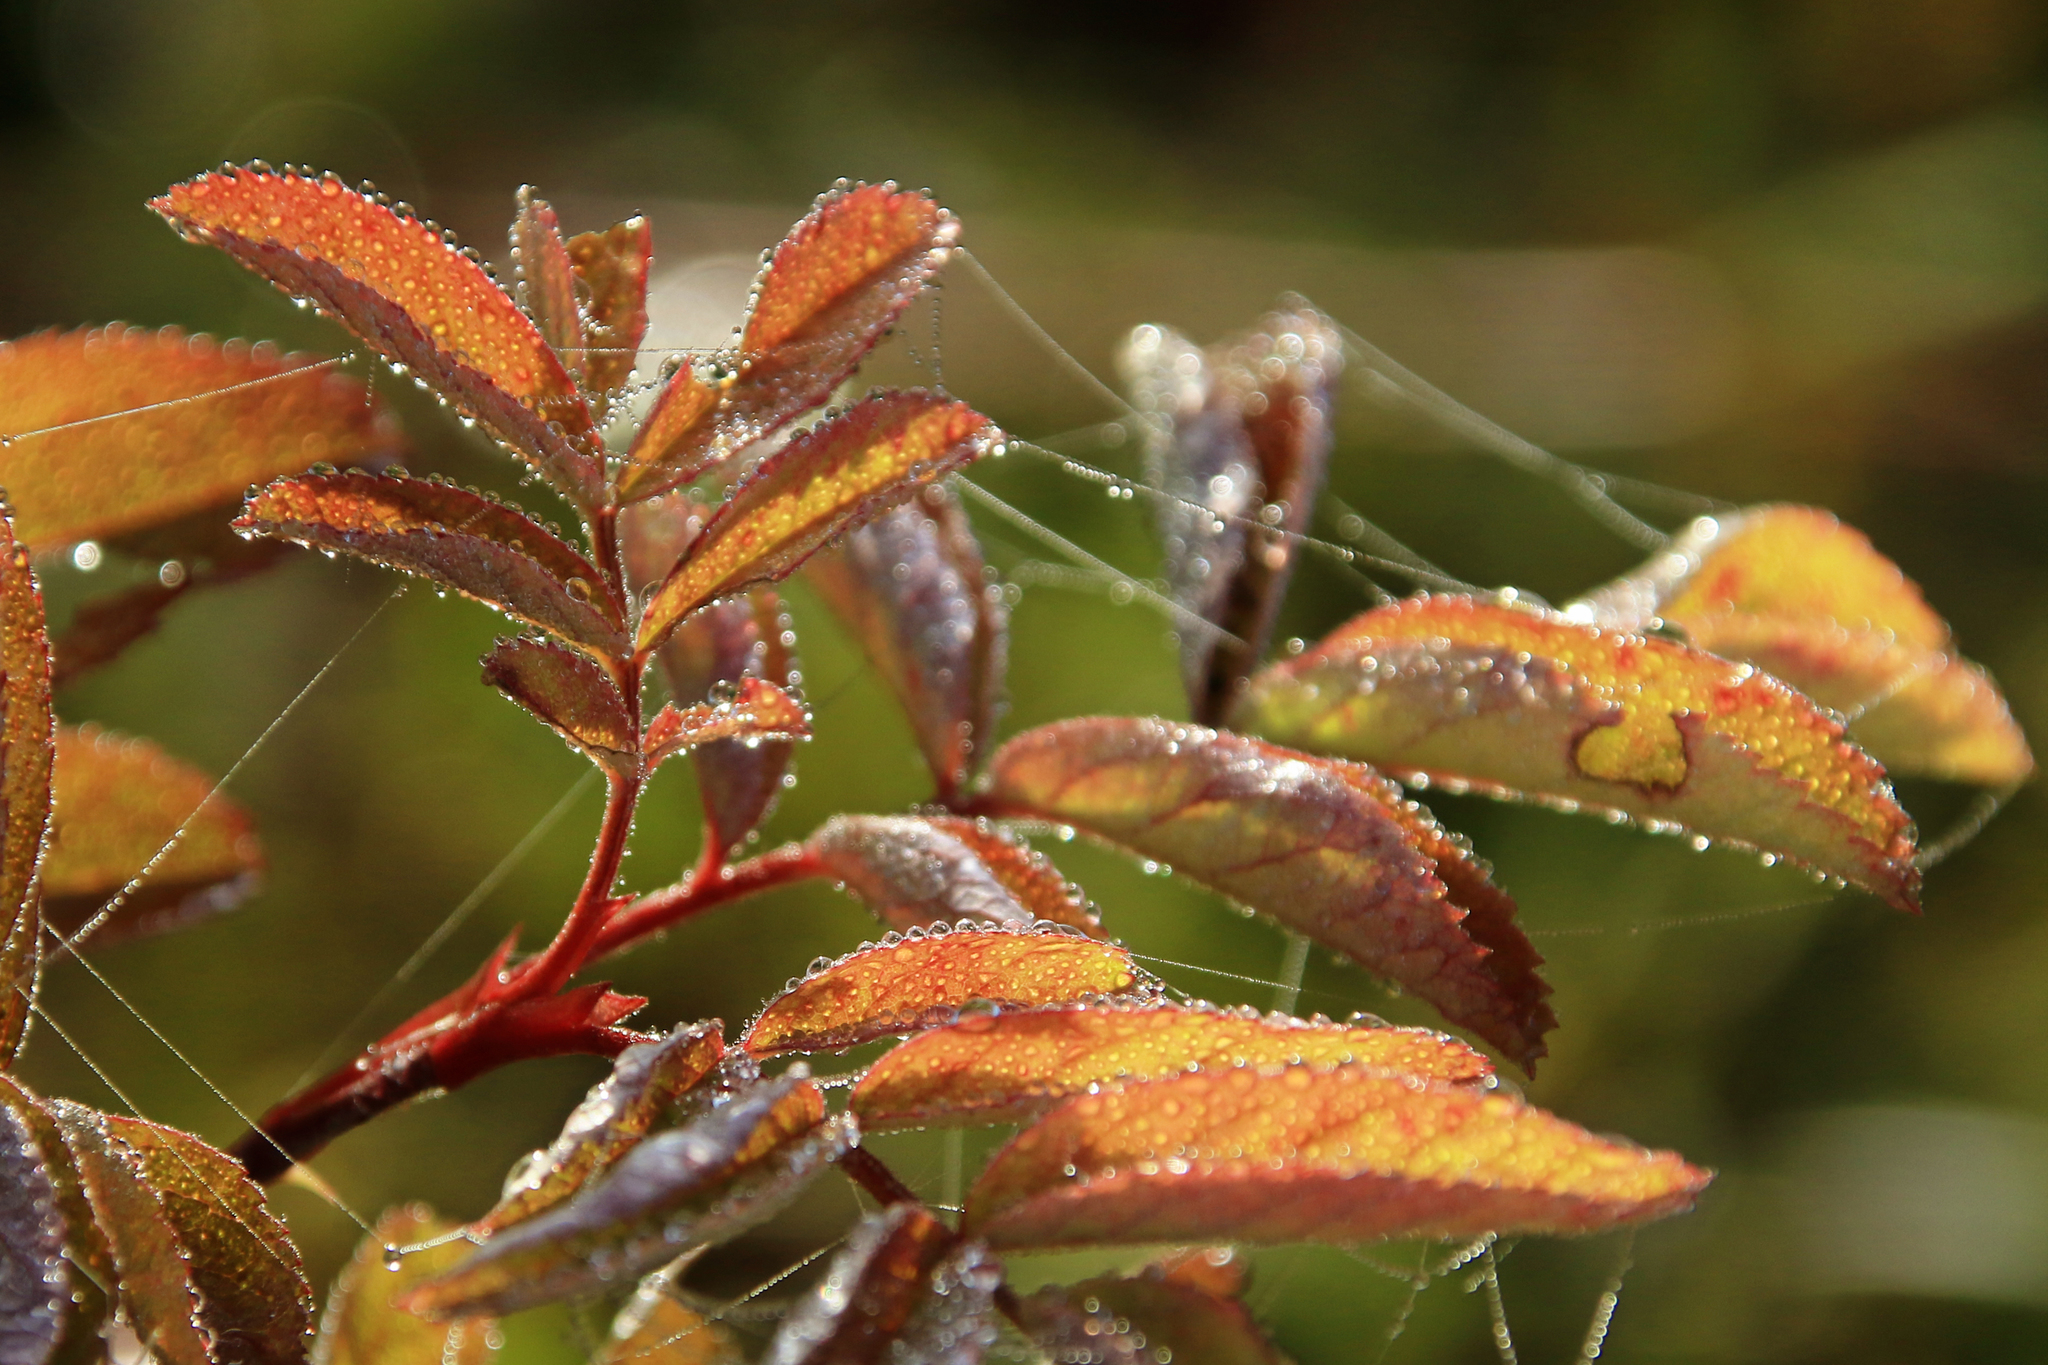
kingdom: Plantae
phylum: Tracheophyta
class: Magnoliopsida
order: Rosales
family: Rosaceae
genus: Rosa
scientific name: Rosa
